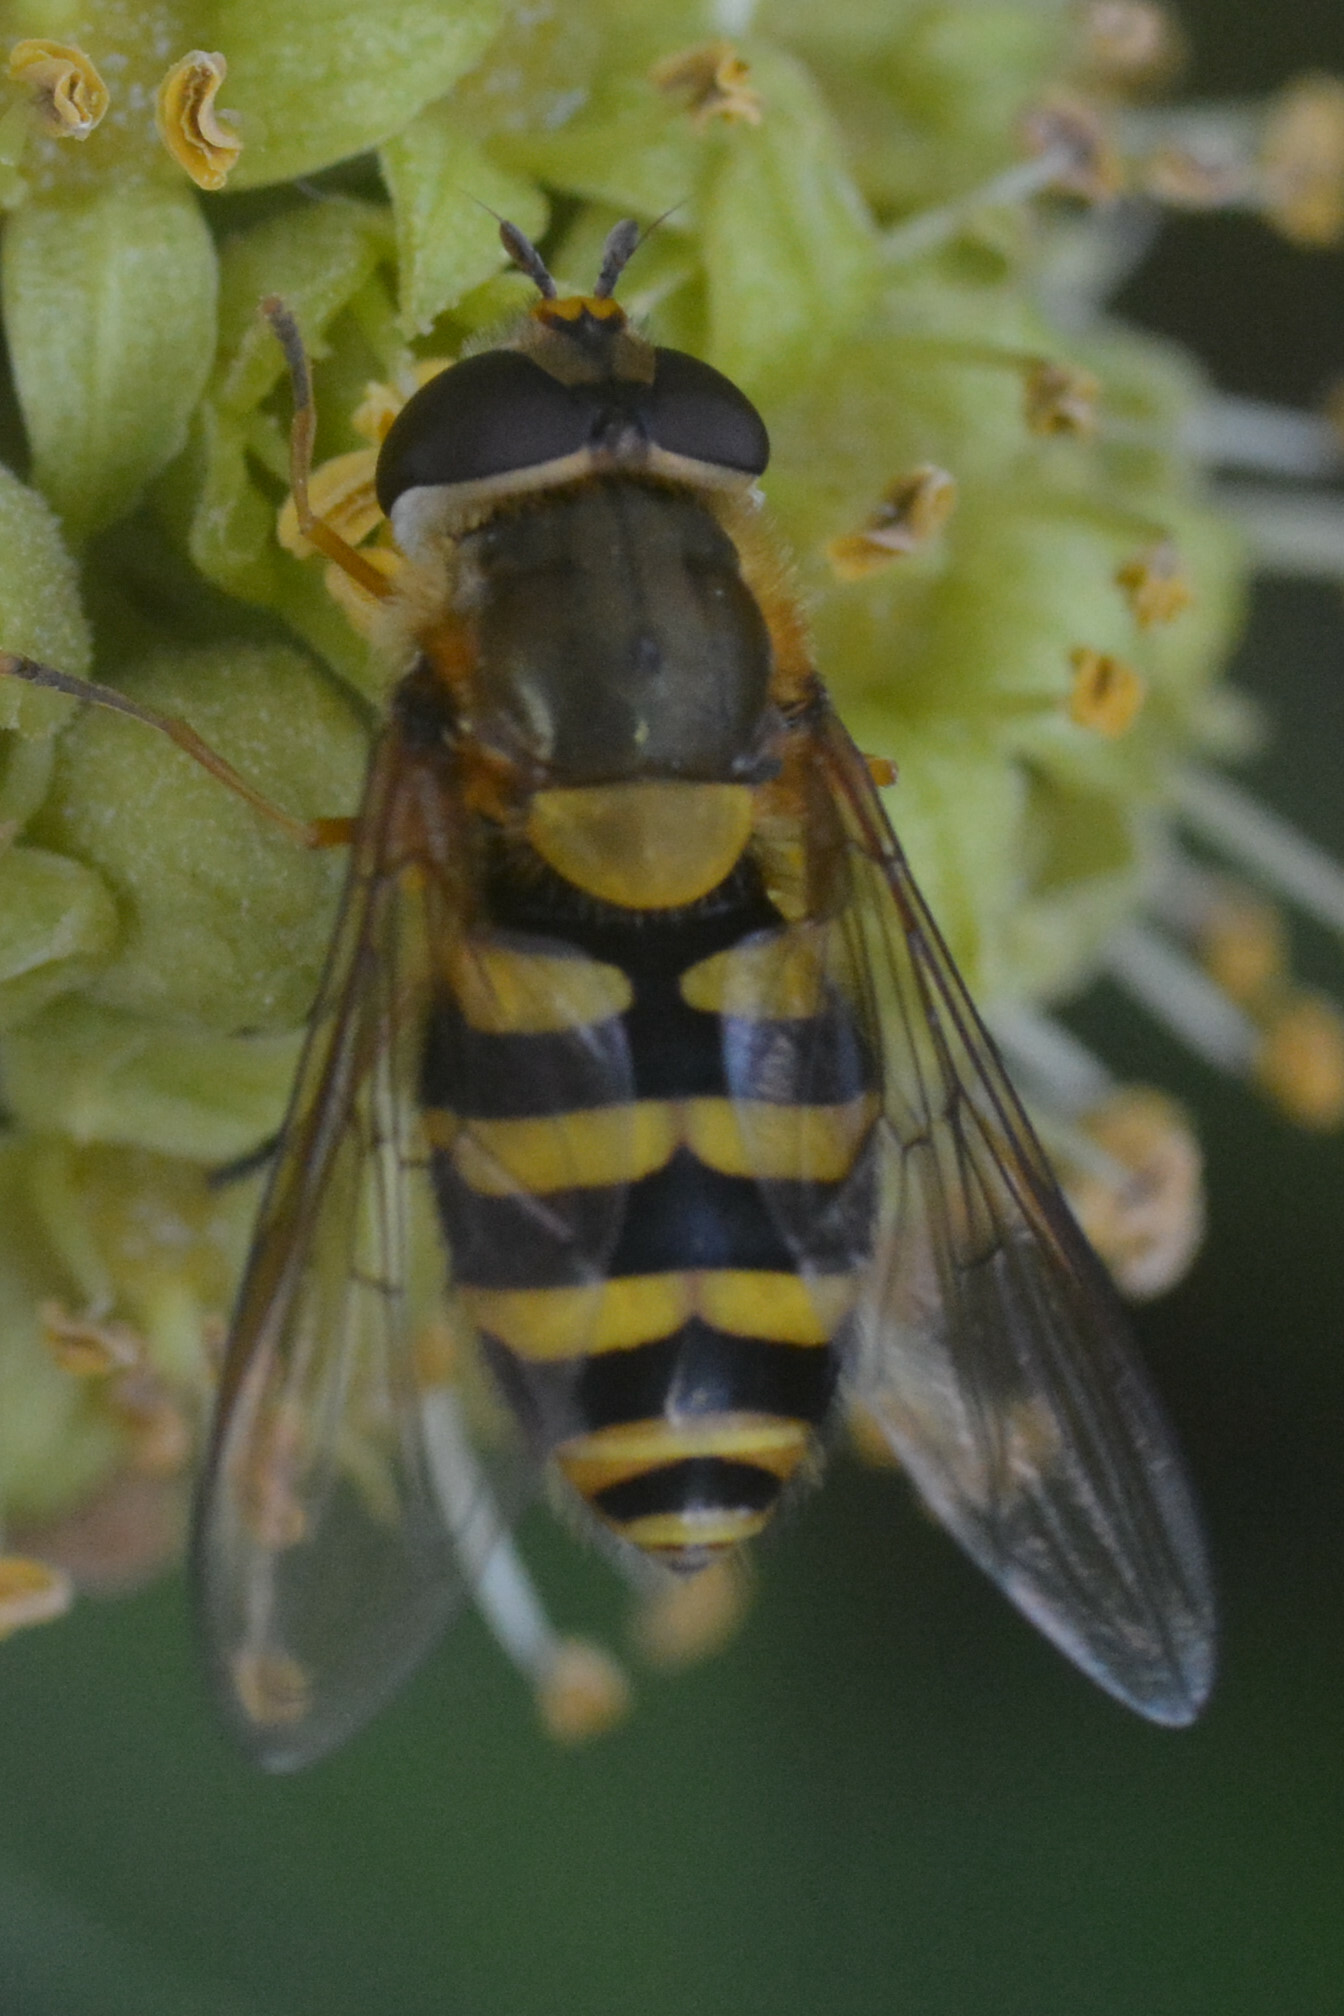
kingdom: Animalia
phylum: Arthropoda
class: Insecta
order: Diptera
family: Syrphidae
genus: Syrphus
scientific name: Syrphus ribesii
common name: Common flower fly
